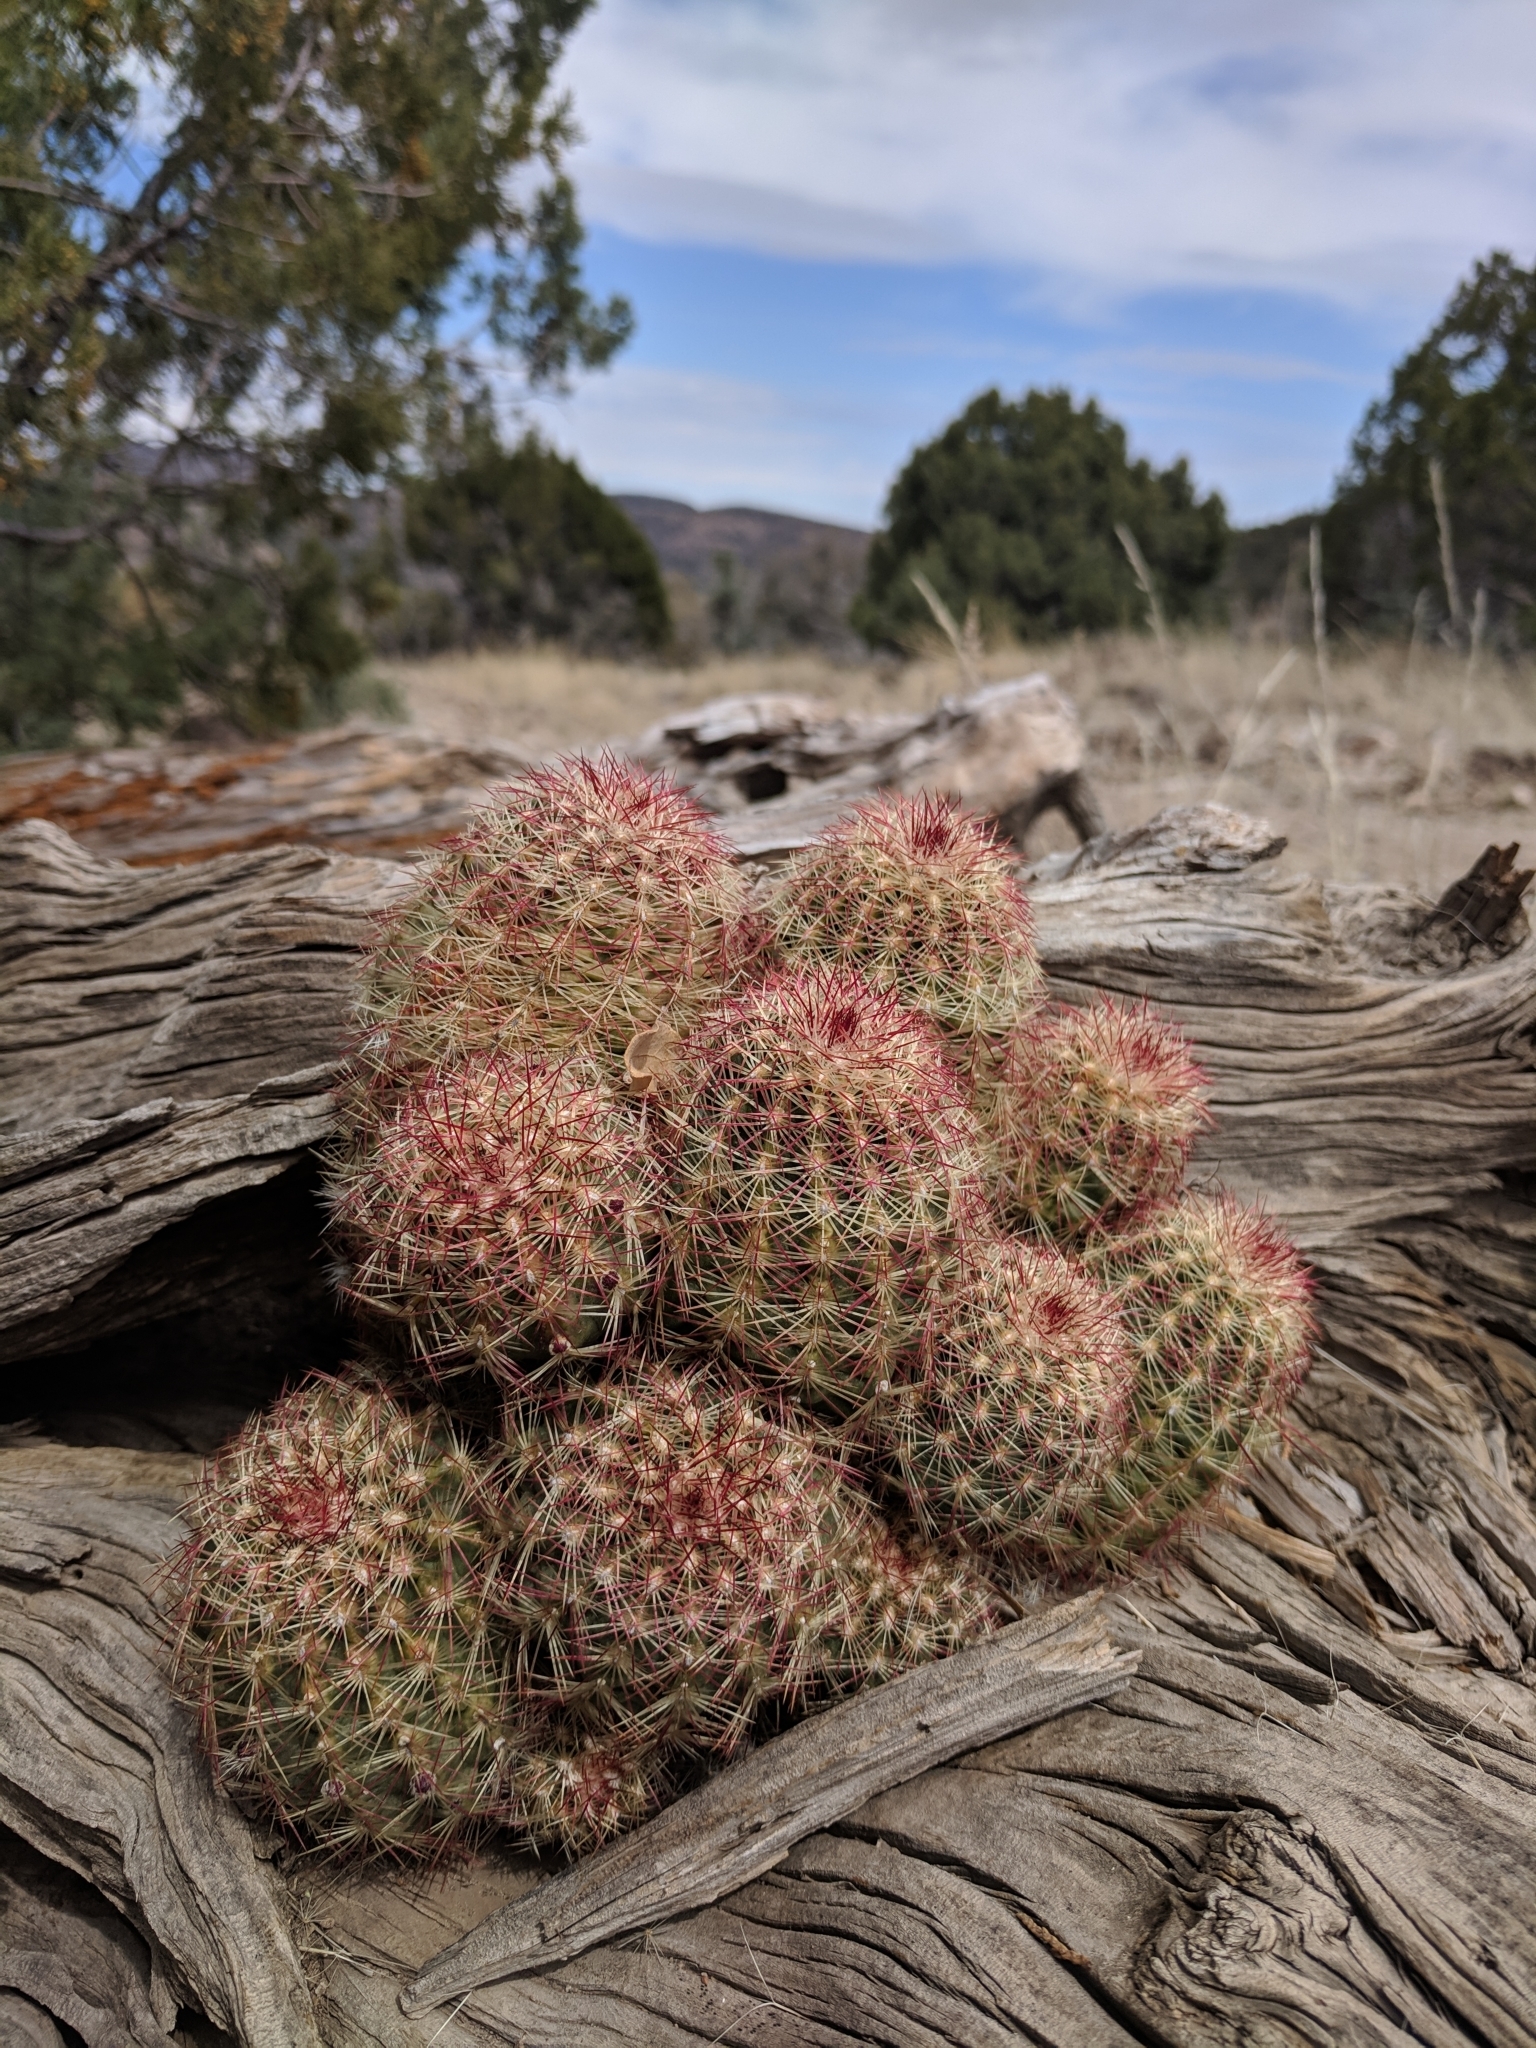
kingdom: Plantae
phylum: Tracheophyta
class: Magnoliopsida
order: Caryophyllales
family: Cactaceae
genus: Echinocereus
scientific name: Echinocereus viridiflorus
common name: Nylon hedgehog cactus
